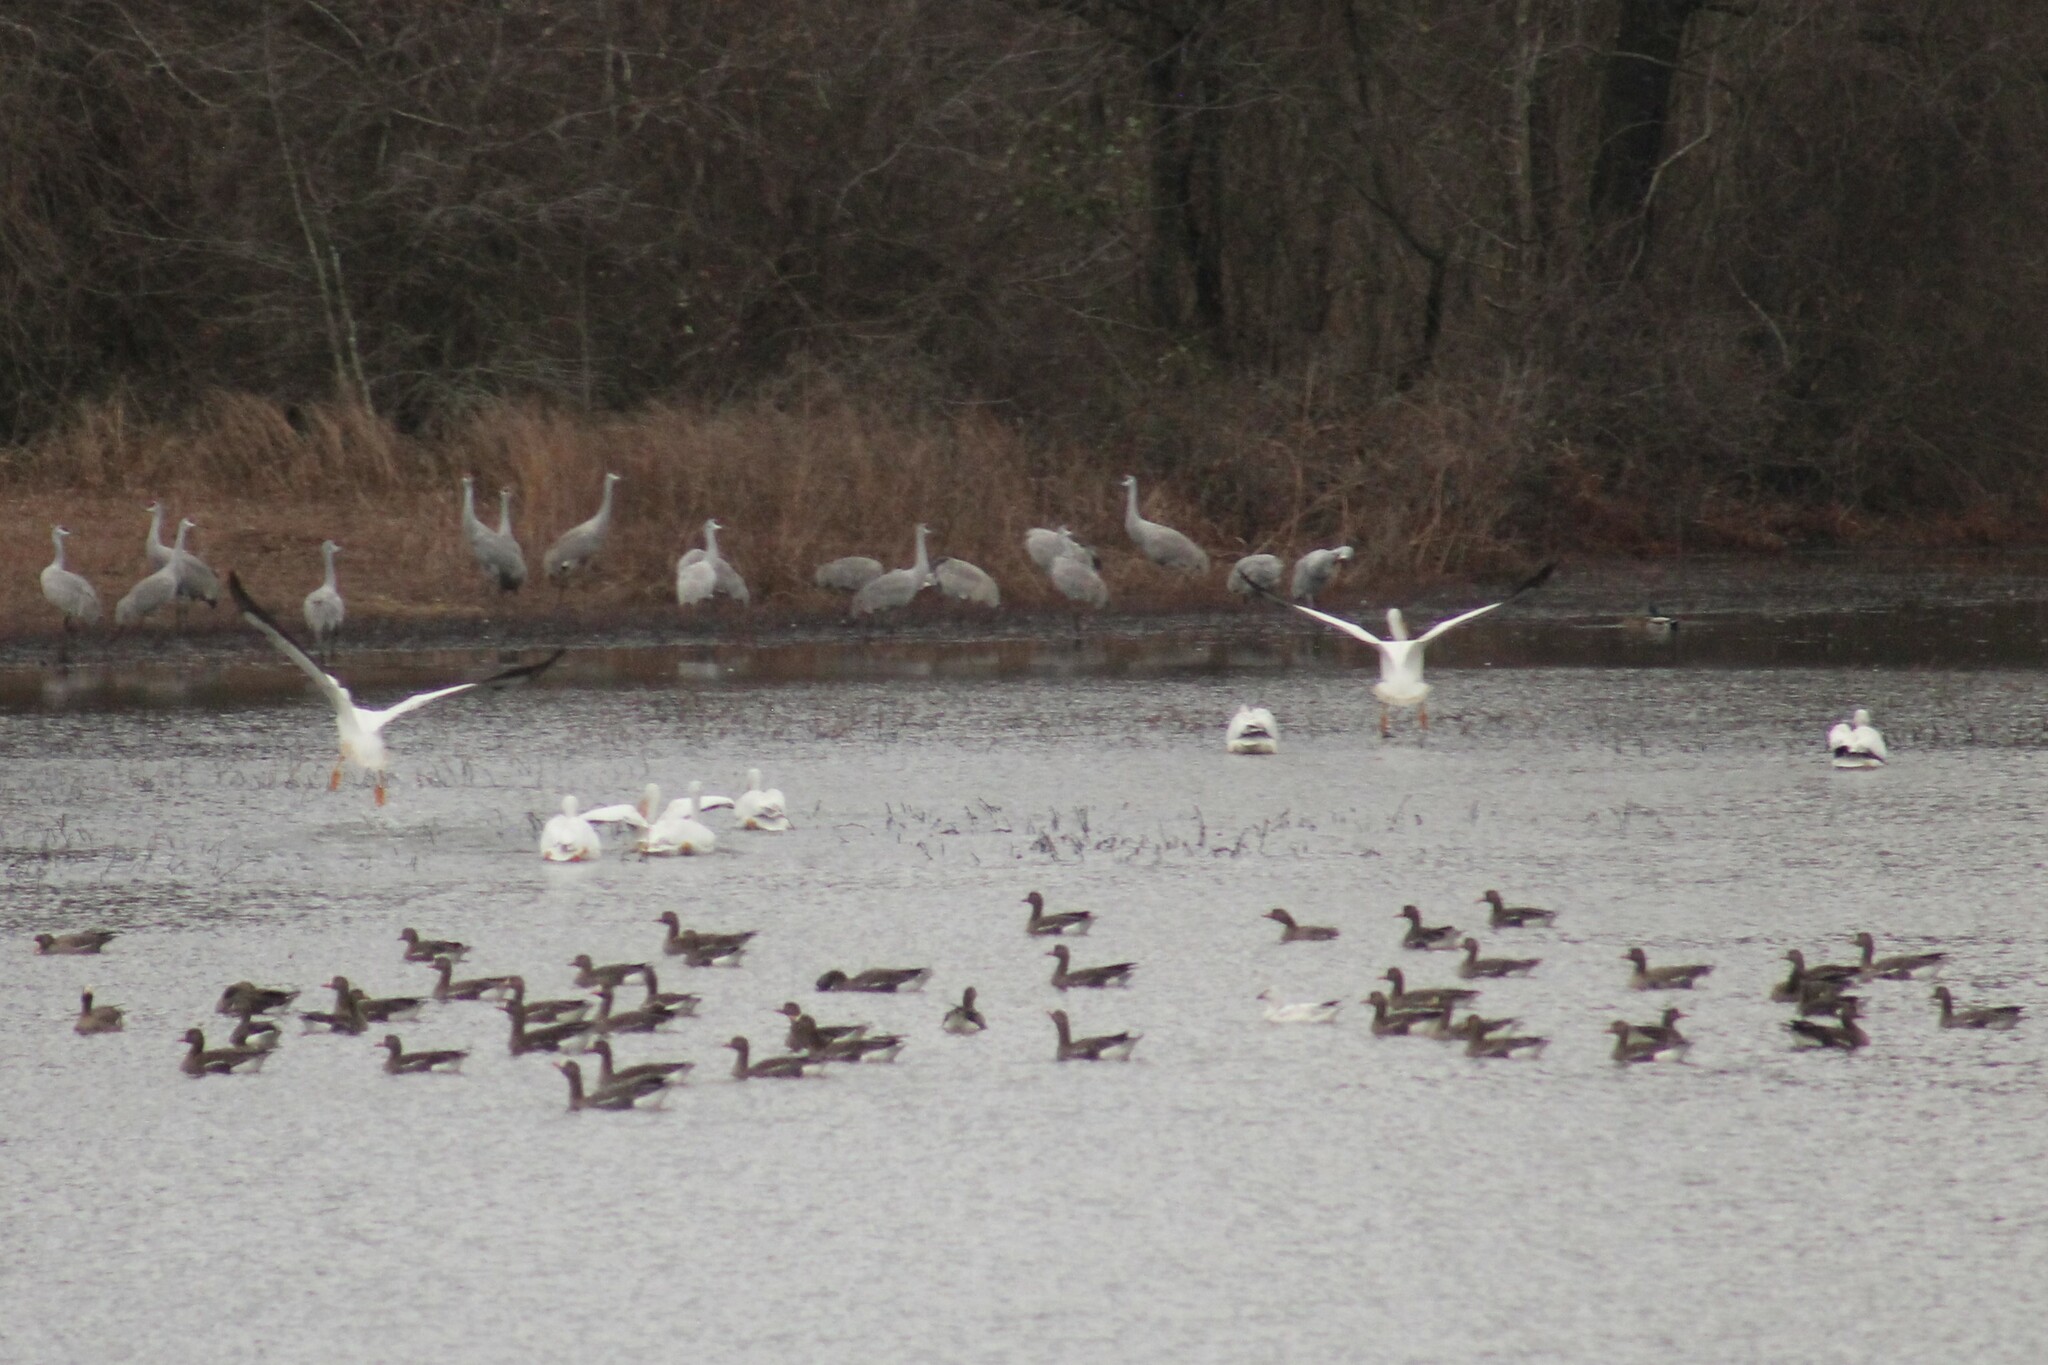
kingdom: Animalia
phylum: Chordata
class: Aves
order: Pelecaniformes
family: Pelecanidae
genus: Pelecanus
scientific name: Pelecanus erythrorhynchos
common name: American white pelican
